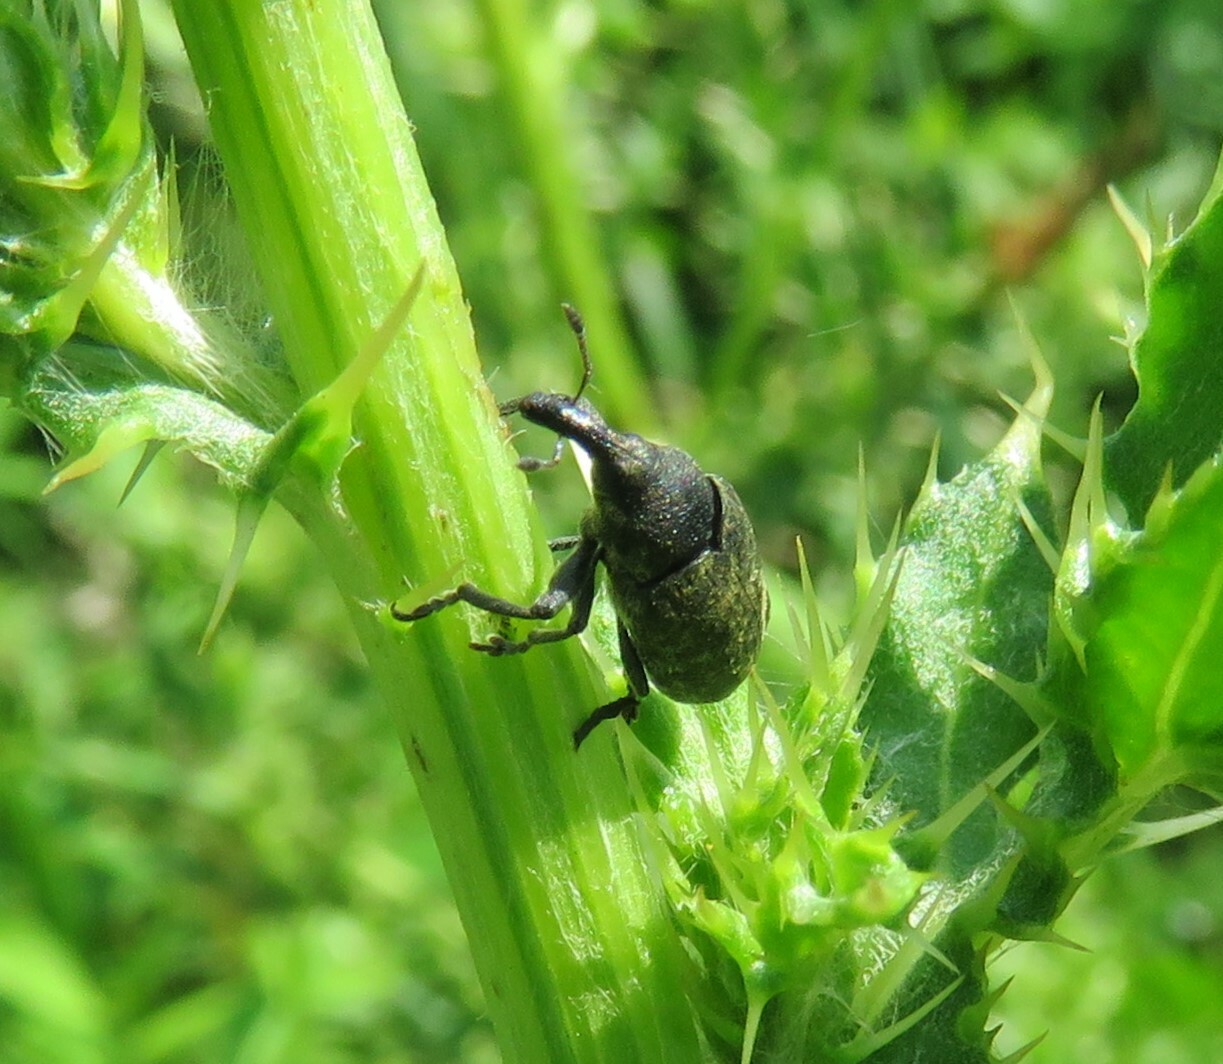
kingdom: Animalia
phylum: Arthropoda
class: Insecta
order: Coleoptera
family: Curculionidae
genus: Larinus
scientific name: Larinus carlinae
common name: Weevil
